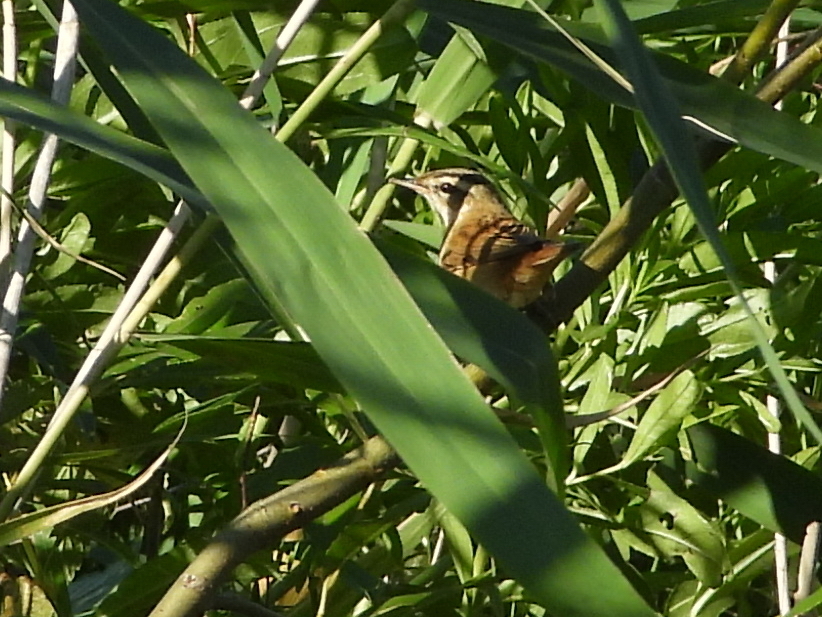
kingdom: Animalia
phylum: Chordata
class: Aves
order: Passeriformes
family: Acrocephalidae
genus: Acrocephalus
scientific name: Acrocephalus schoenobaenus
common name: Sedge warbler
